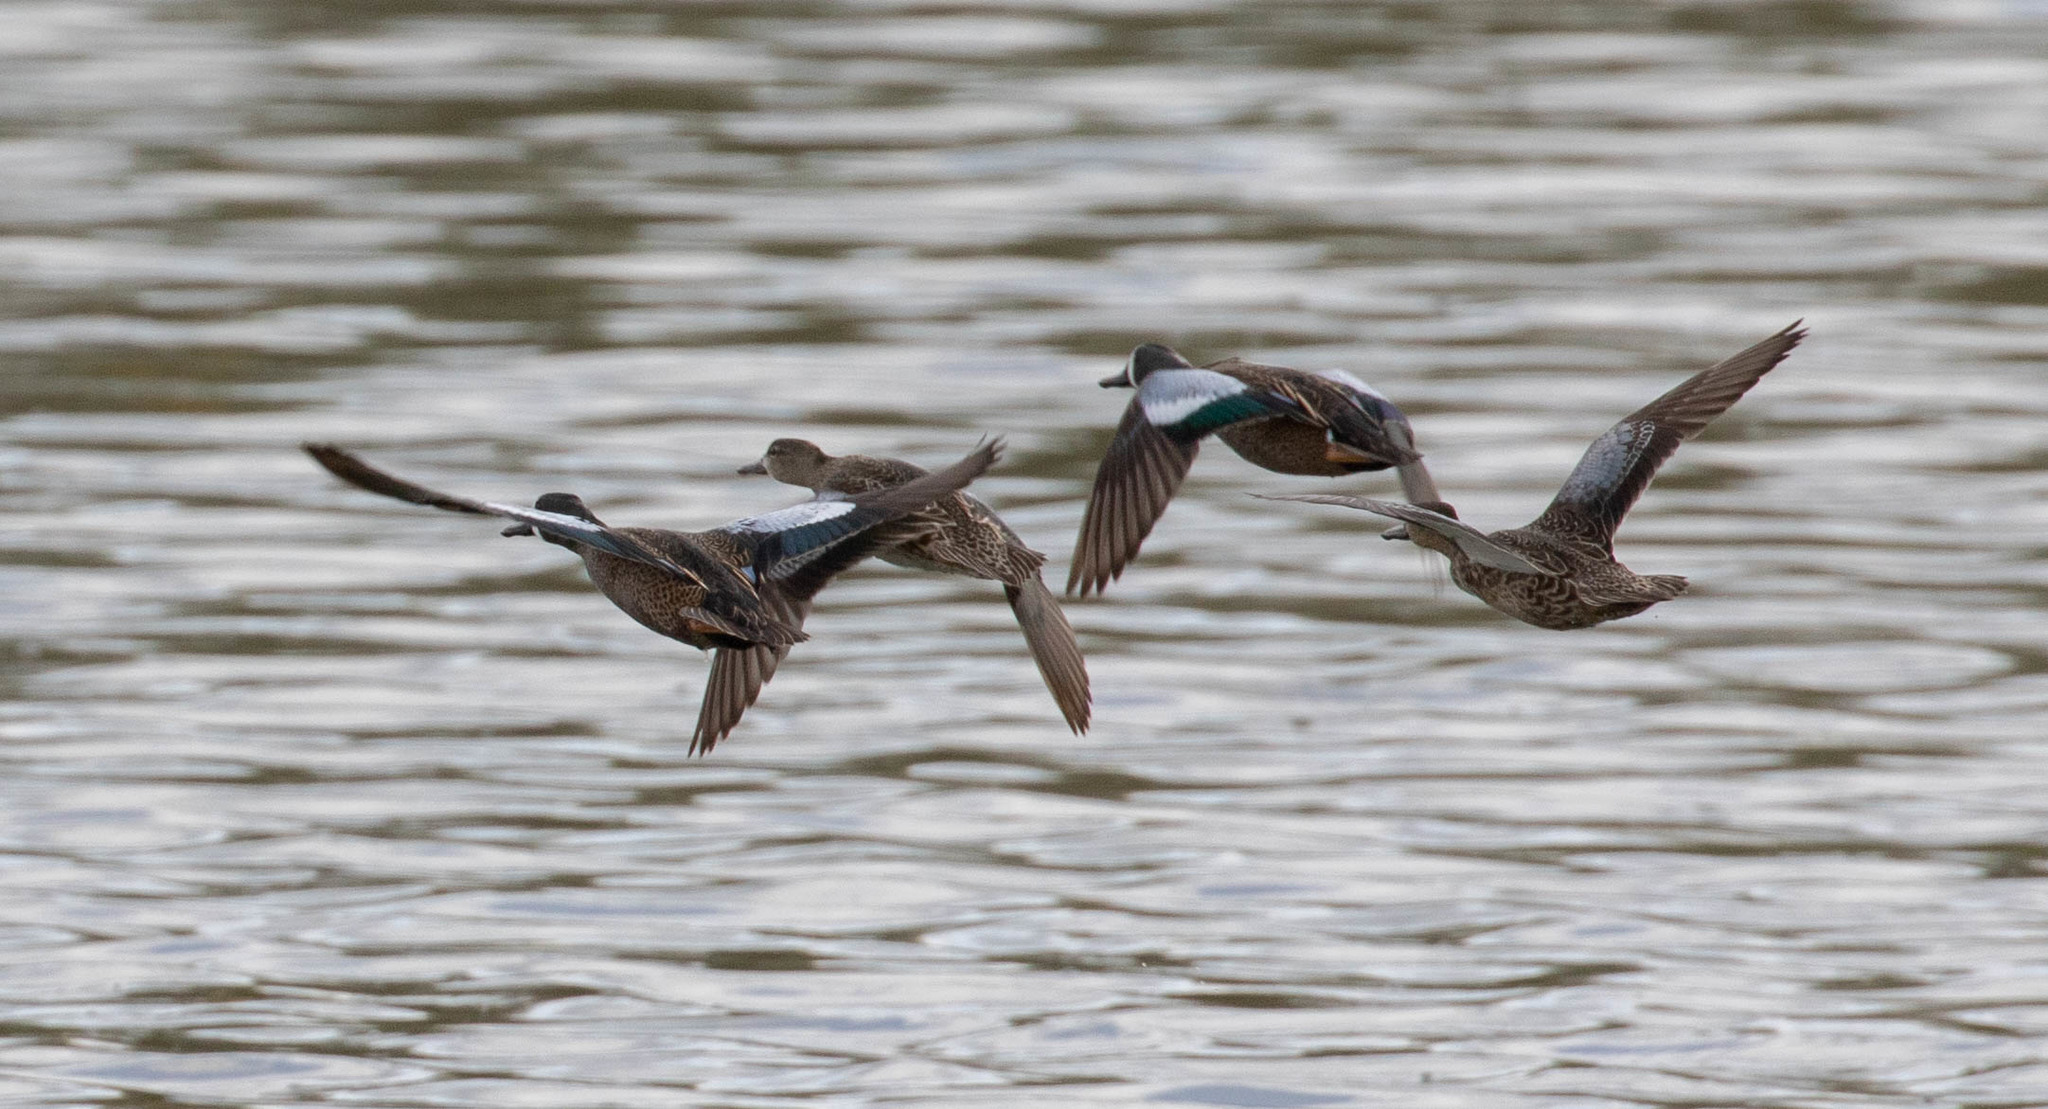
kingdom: Animalia
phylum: Chordata
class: Aves
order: Anseriformes
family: Anatidae
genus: Spatula
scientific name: Spatula discors
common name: Blue-winged teal
